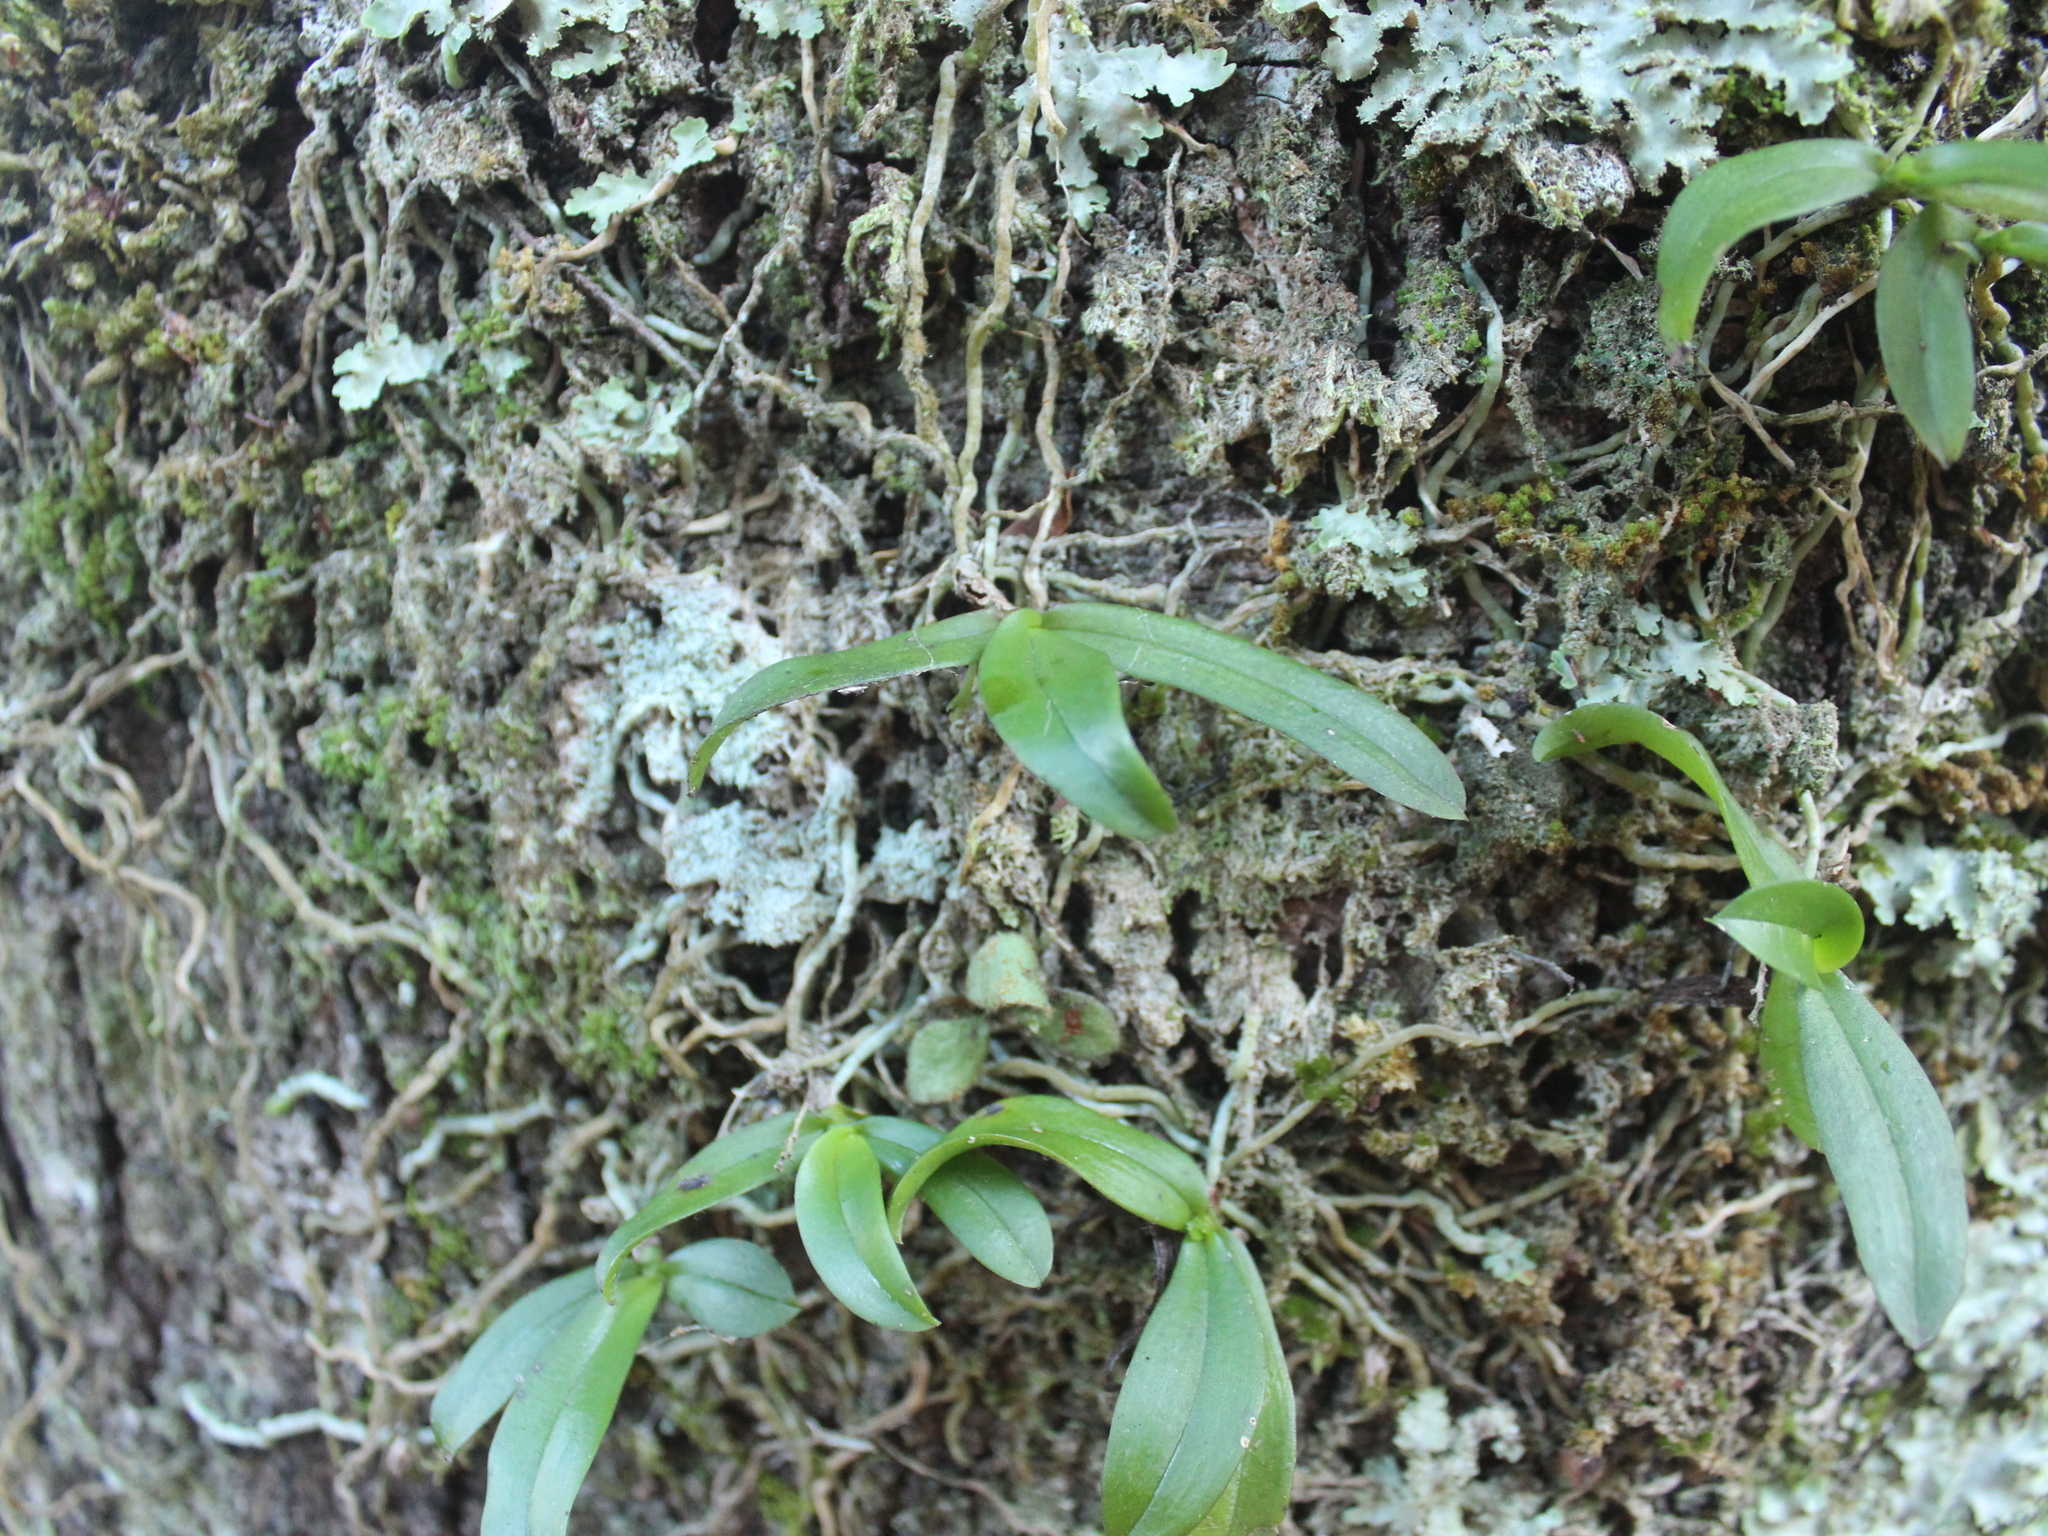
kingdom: Plantae
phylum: Tracheophyta
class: Liliopsida
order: Asparagales
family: Orchidaceae
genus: Drymoanthus
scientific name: Drymoanthus adversus
